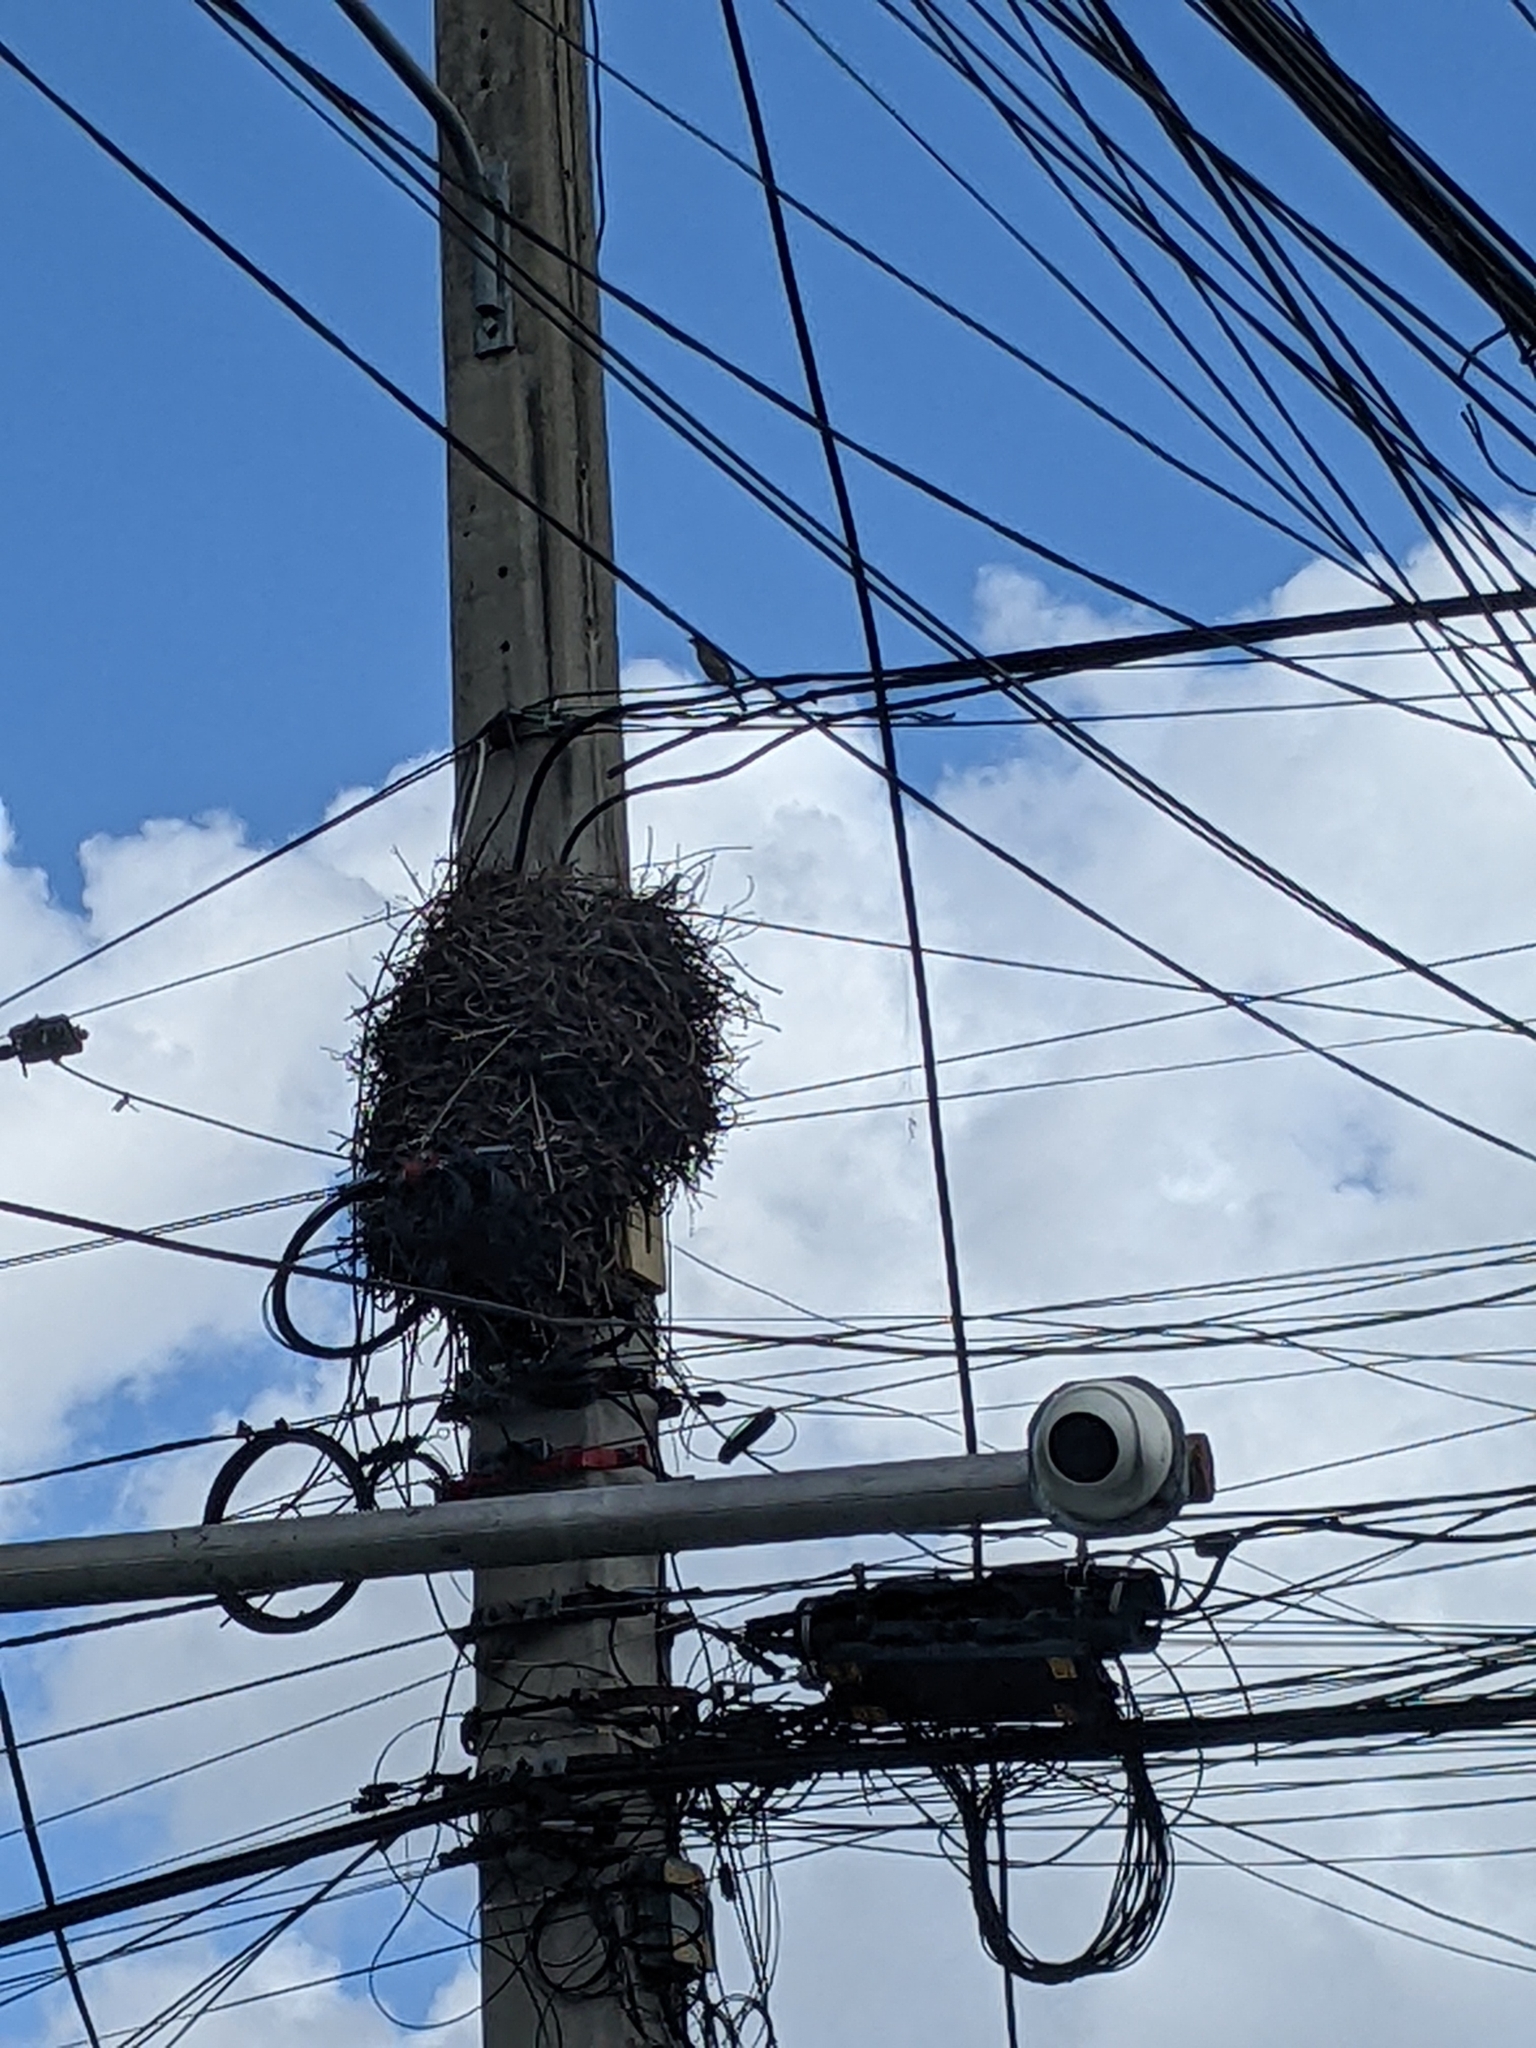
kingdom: Animalia
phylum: Chordata
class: Aves
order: Passeriformes
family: Dulidae
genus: Dulus
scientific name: Dulus dominicus
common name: Palmchat
